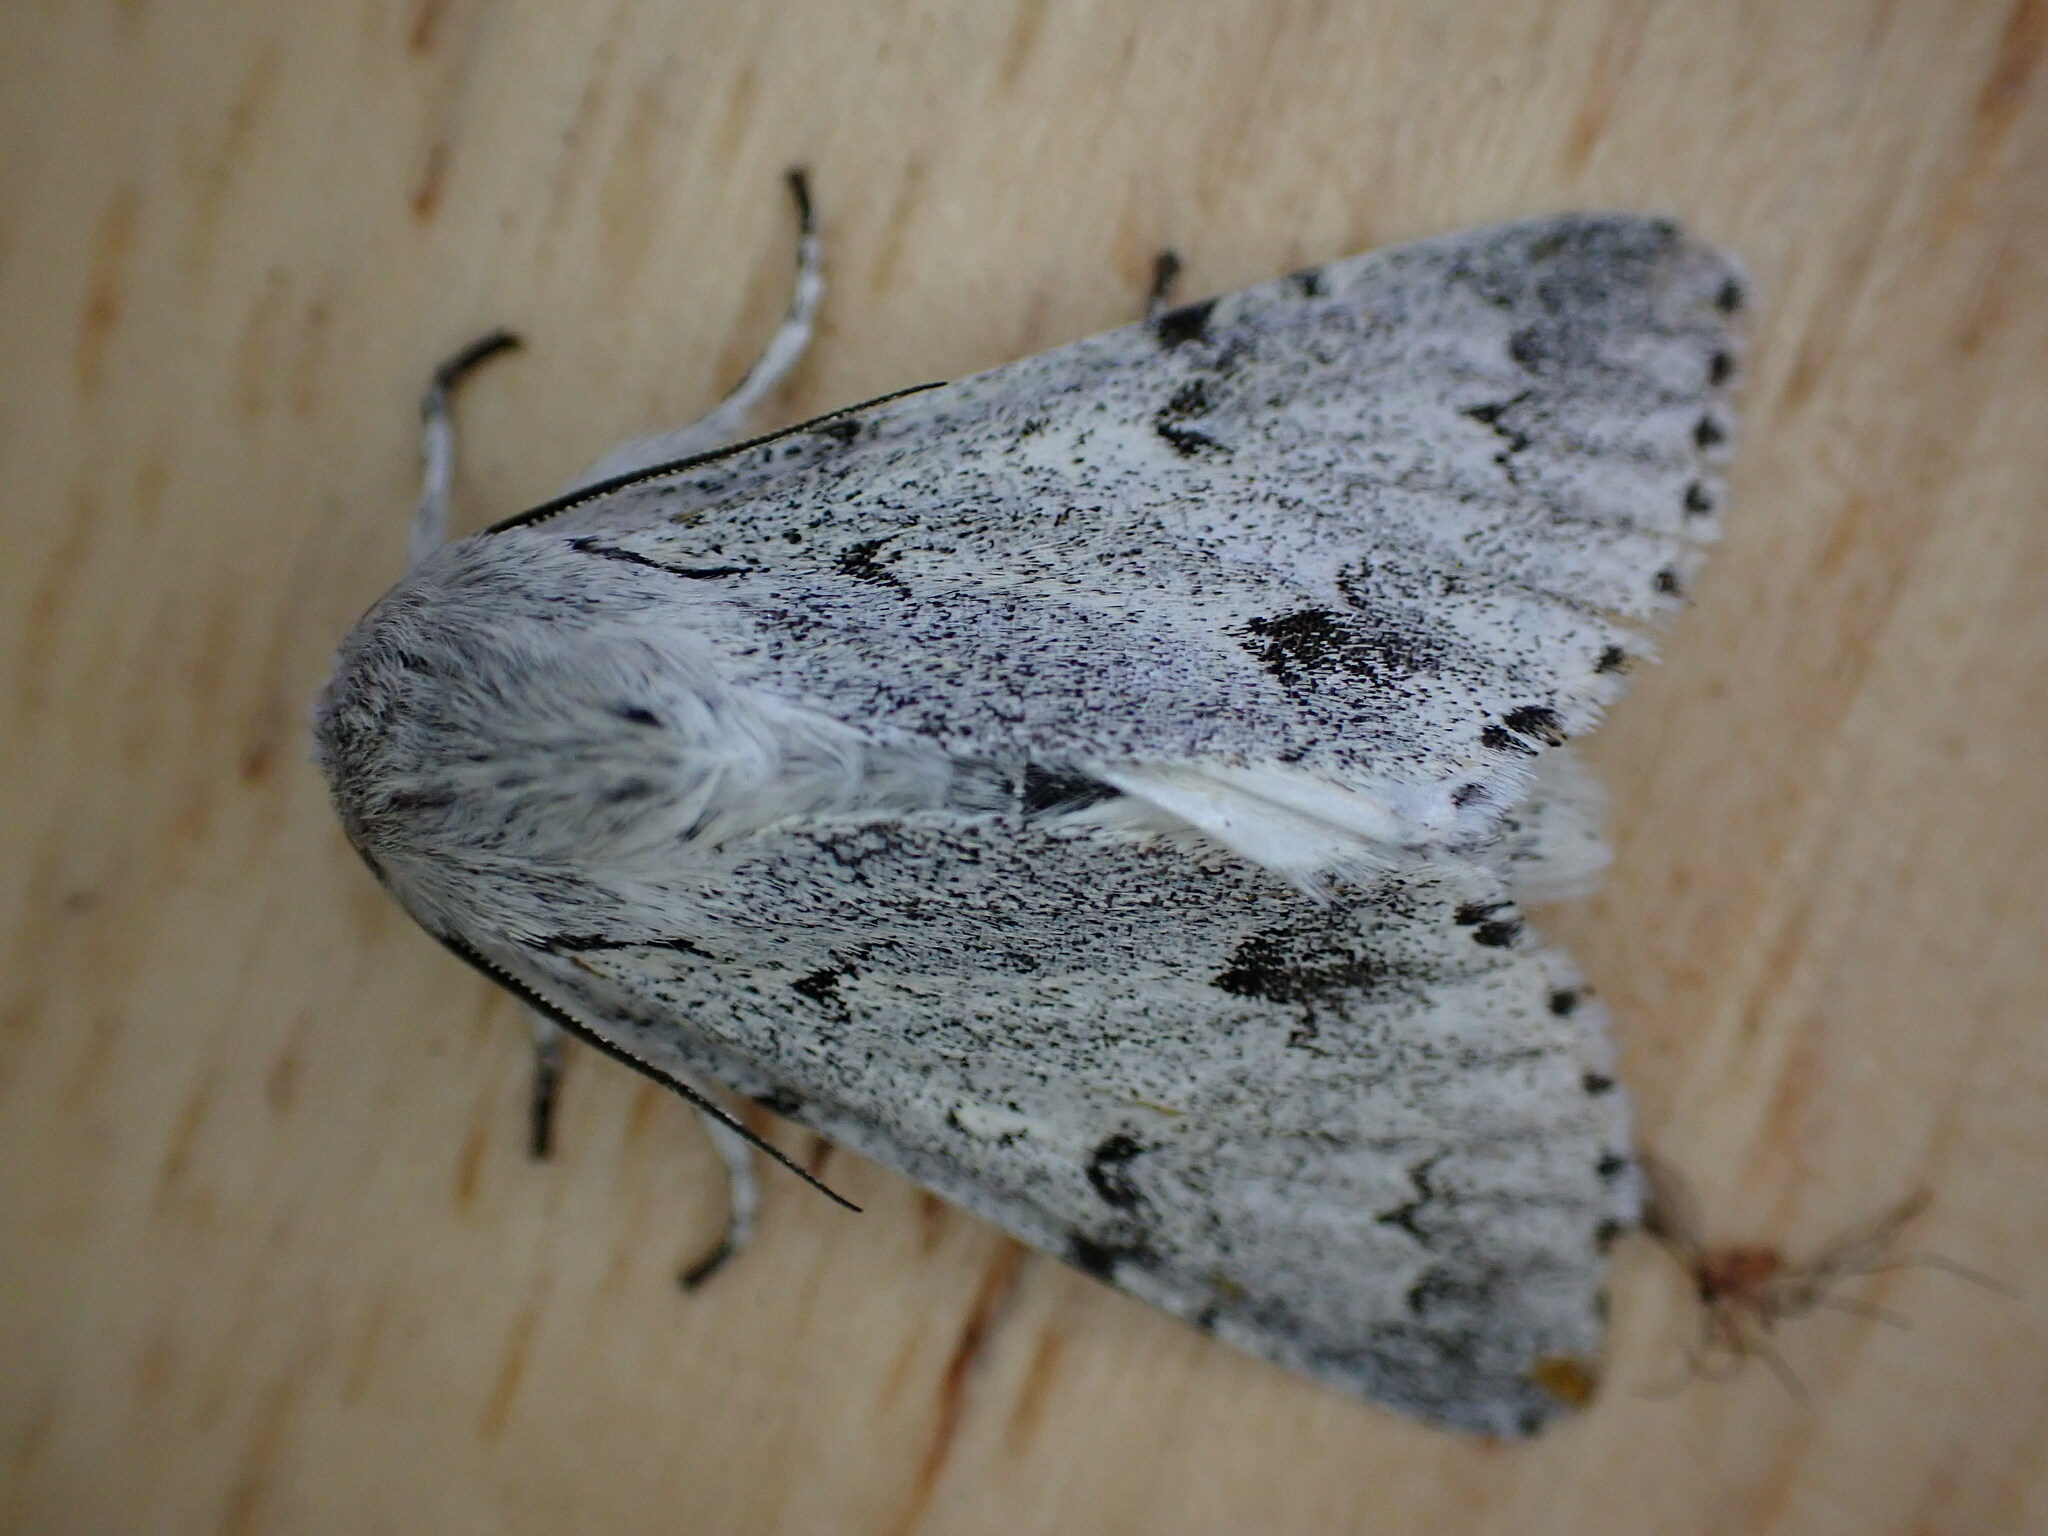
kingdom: Animalia
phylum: Arthropoda
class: Insecta
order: Lepidoptera
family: Noctuidae
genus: Acronicta
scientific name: Acronicta leporina
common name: Miller
